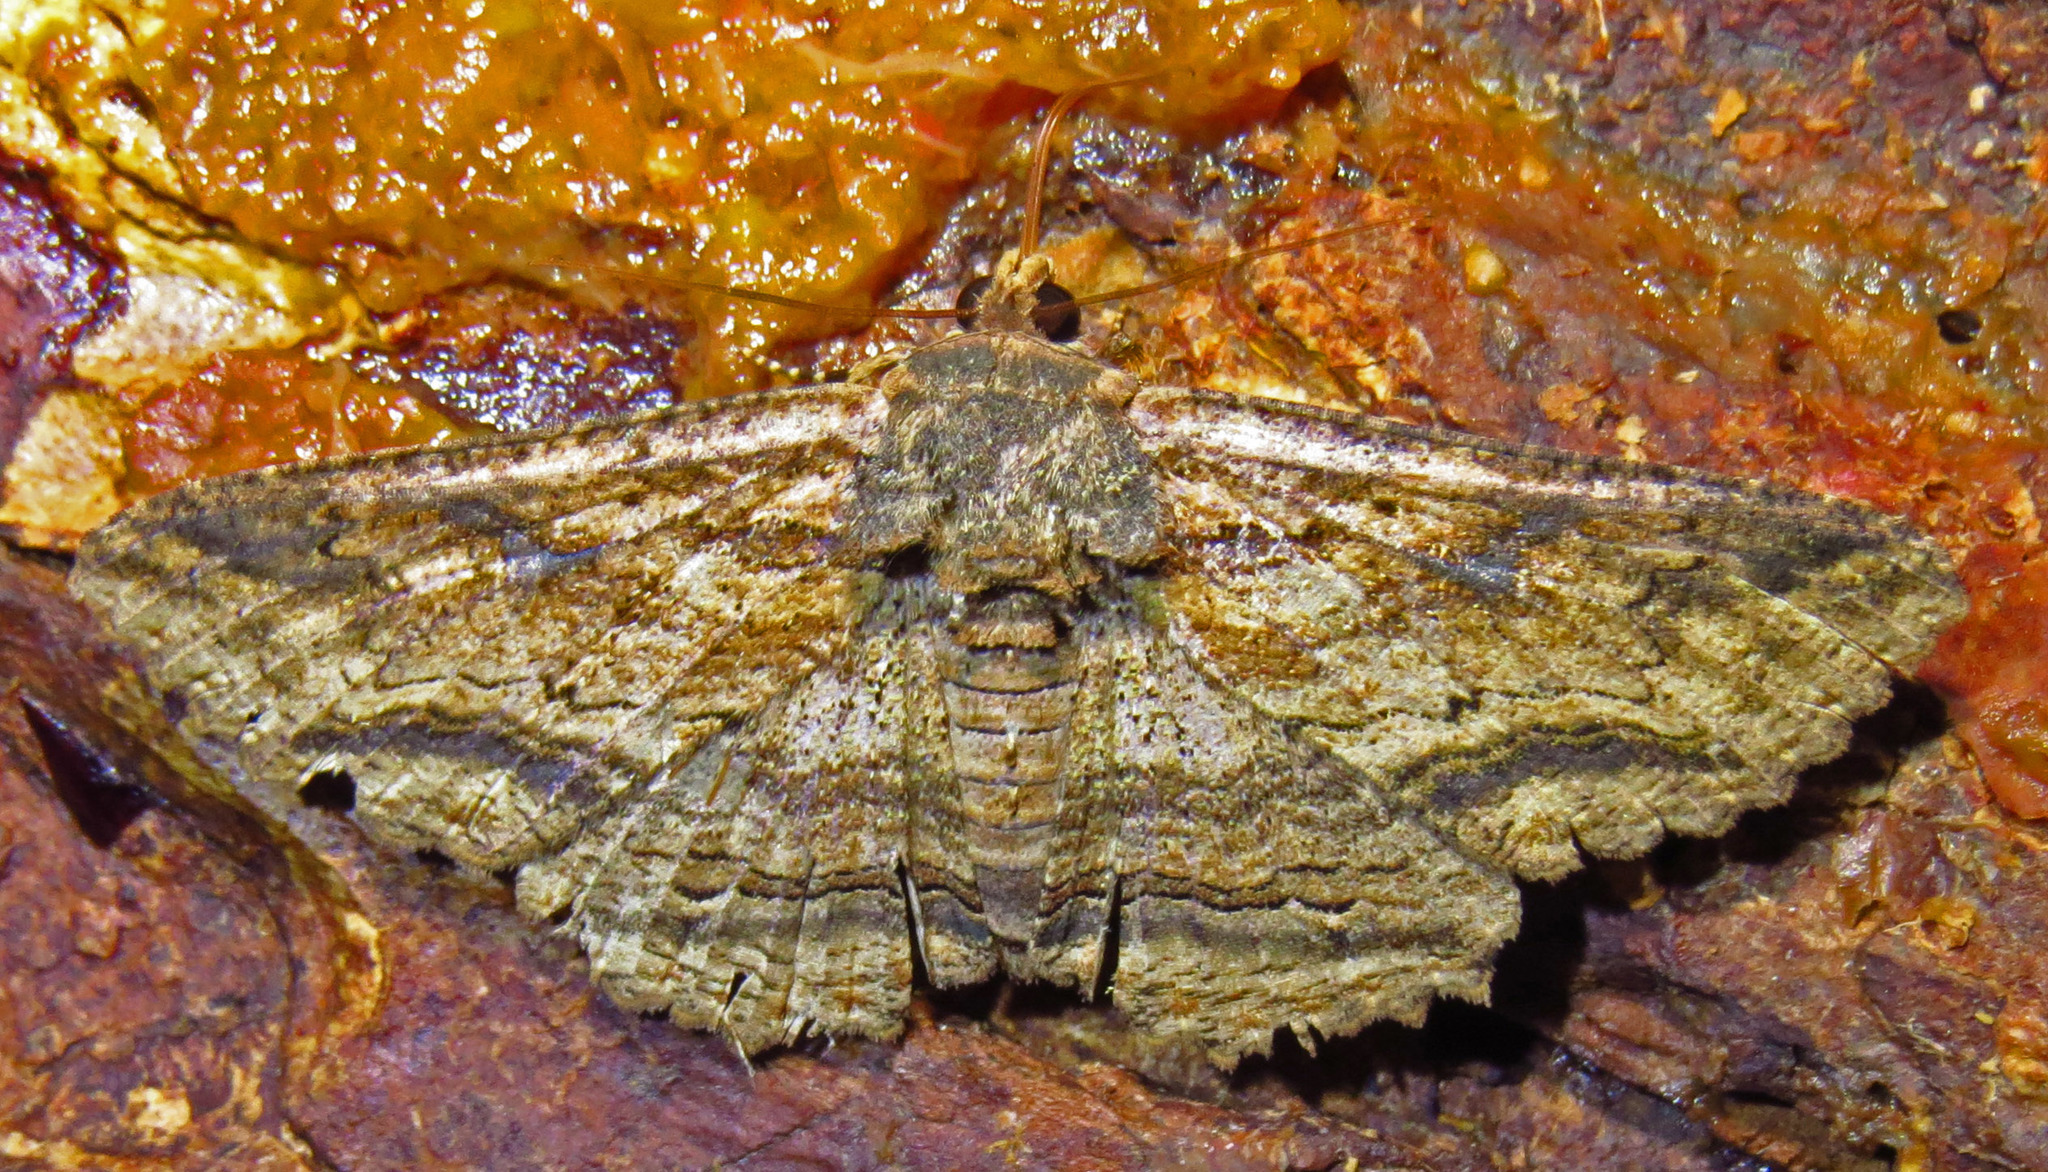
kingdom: Animalia
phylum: Arthropoda
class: Insecta
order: Lepidoptera
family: Erebidae
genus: Zale
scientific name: Zale lunata
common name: Lunate zale moth
